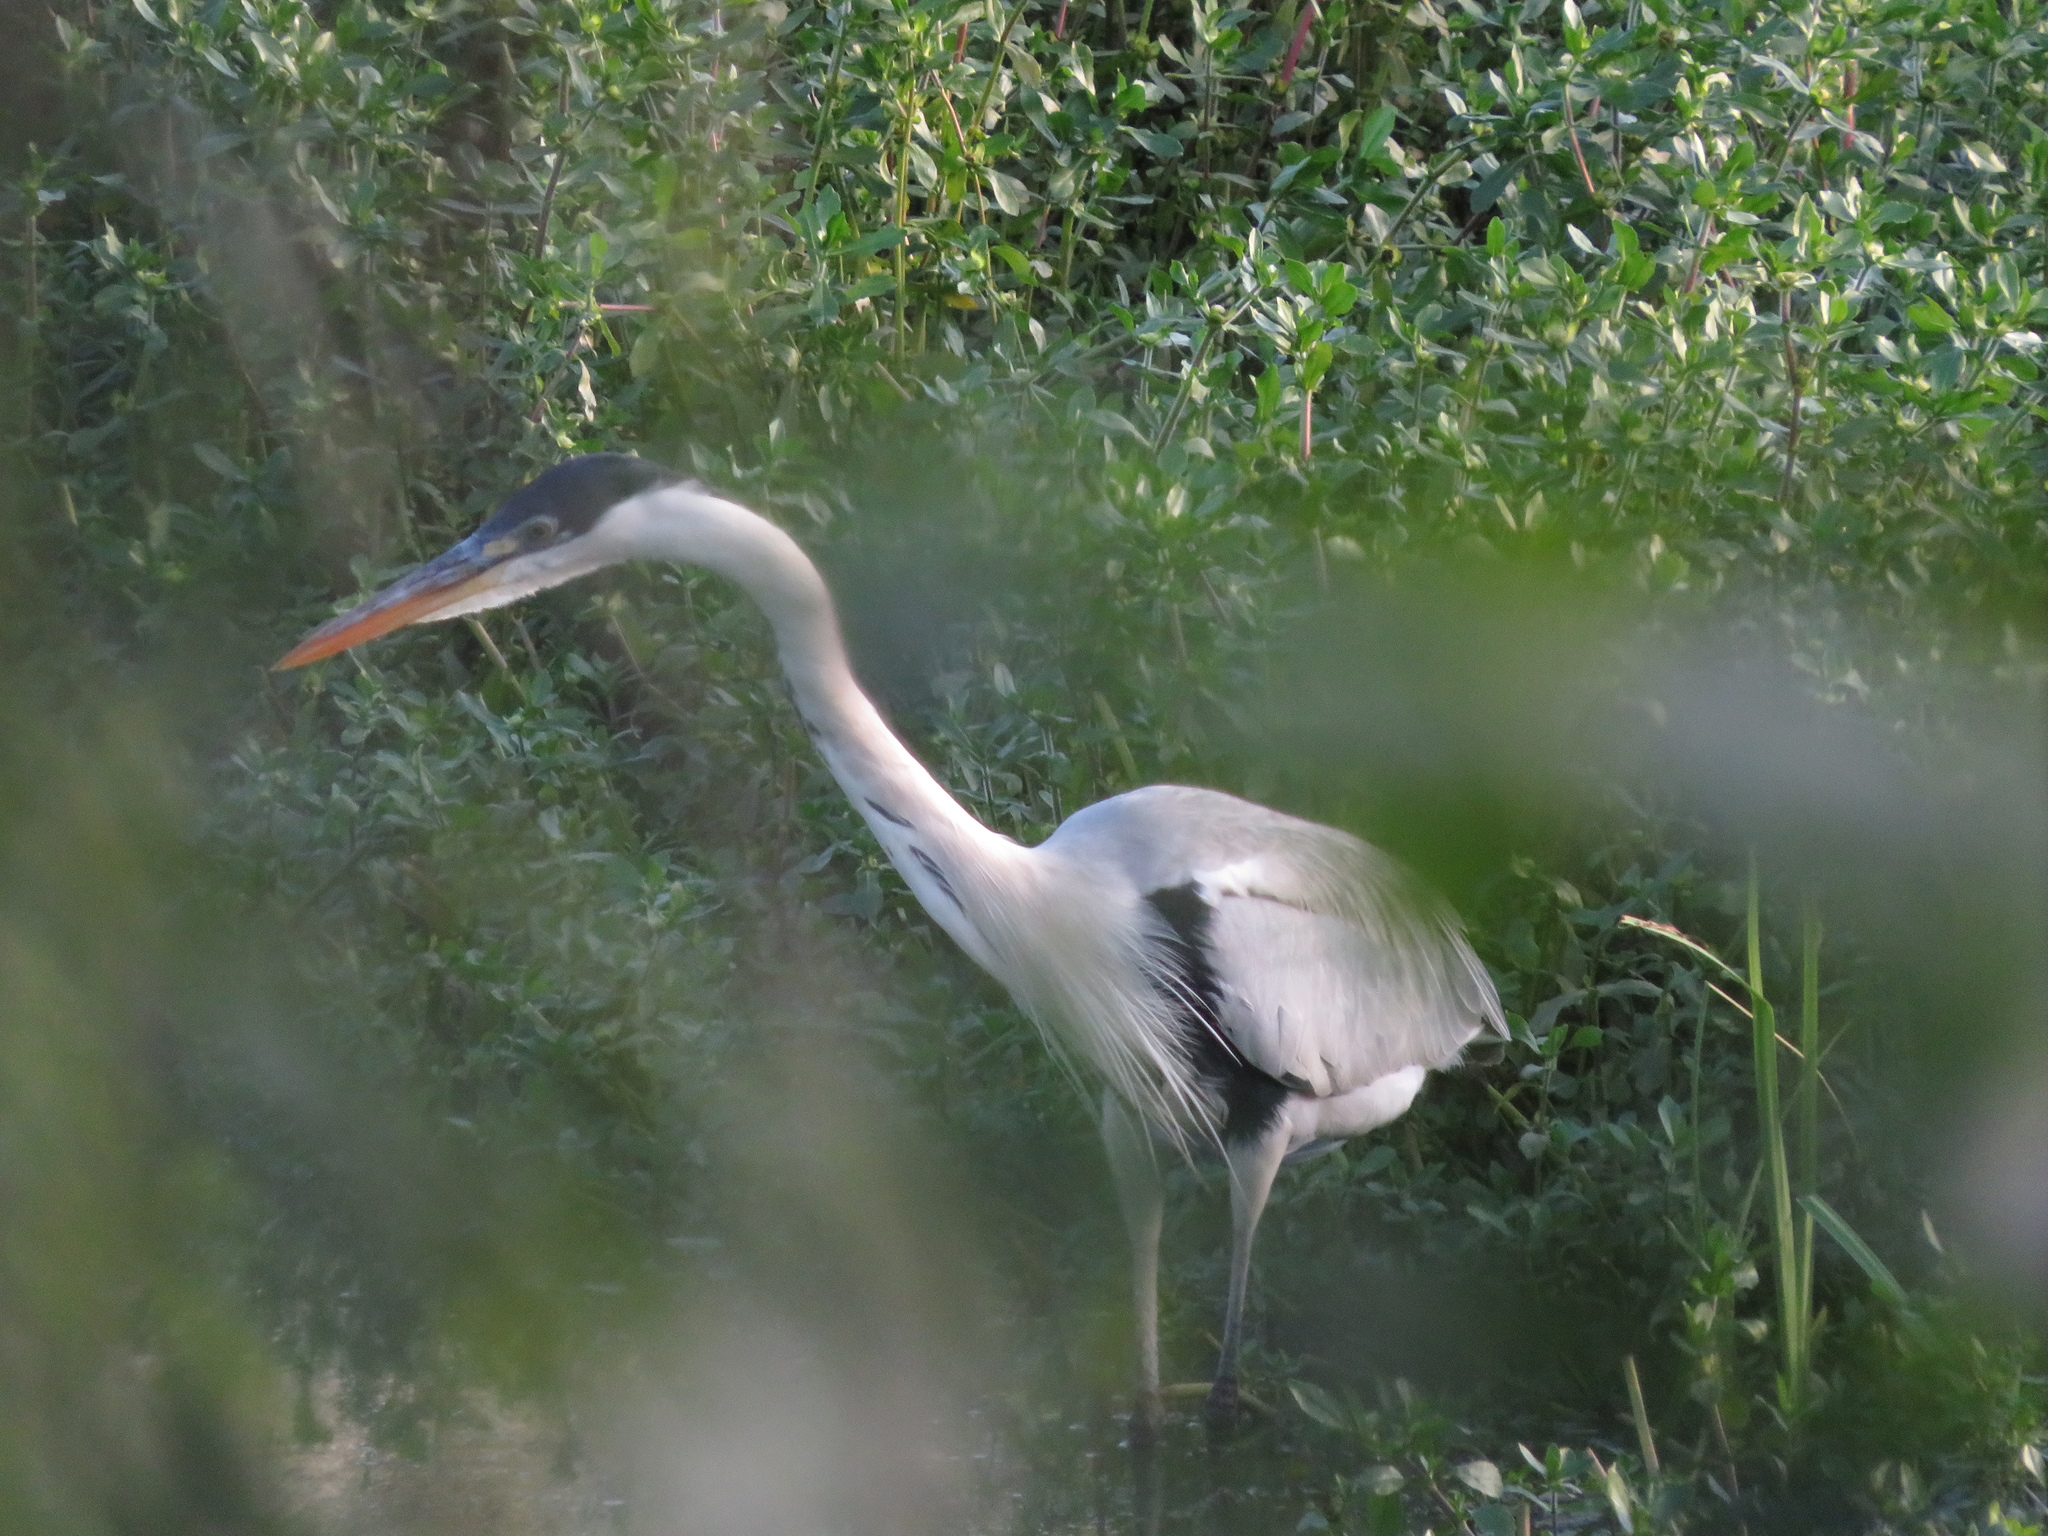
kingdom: Animalia
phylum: Chordata
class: Aves
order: Pelecaniformes
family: Ardeidae
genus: Ardea
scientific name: Ardea cocoi
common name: Cocoi heron
